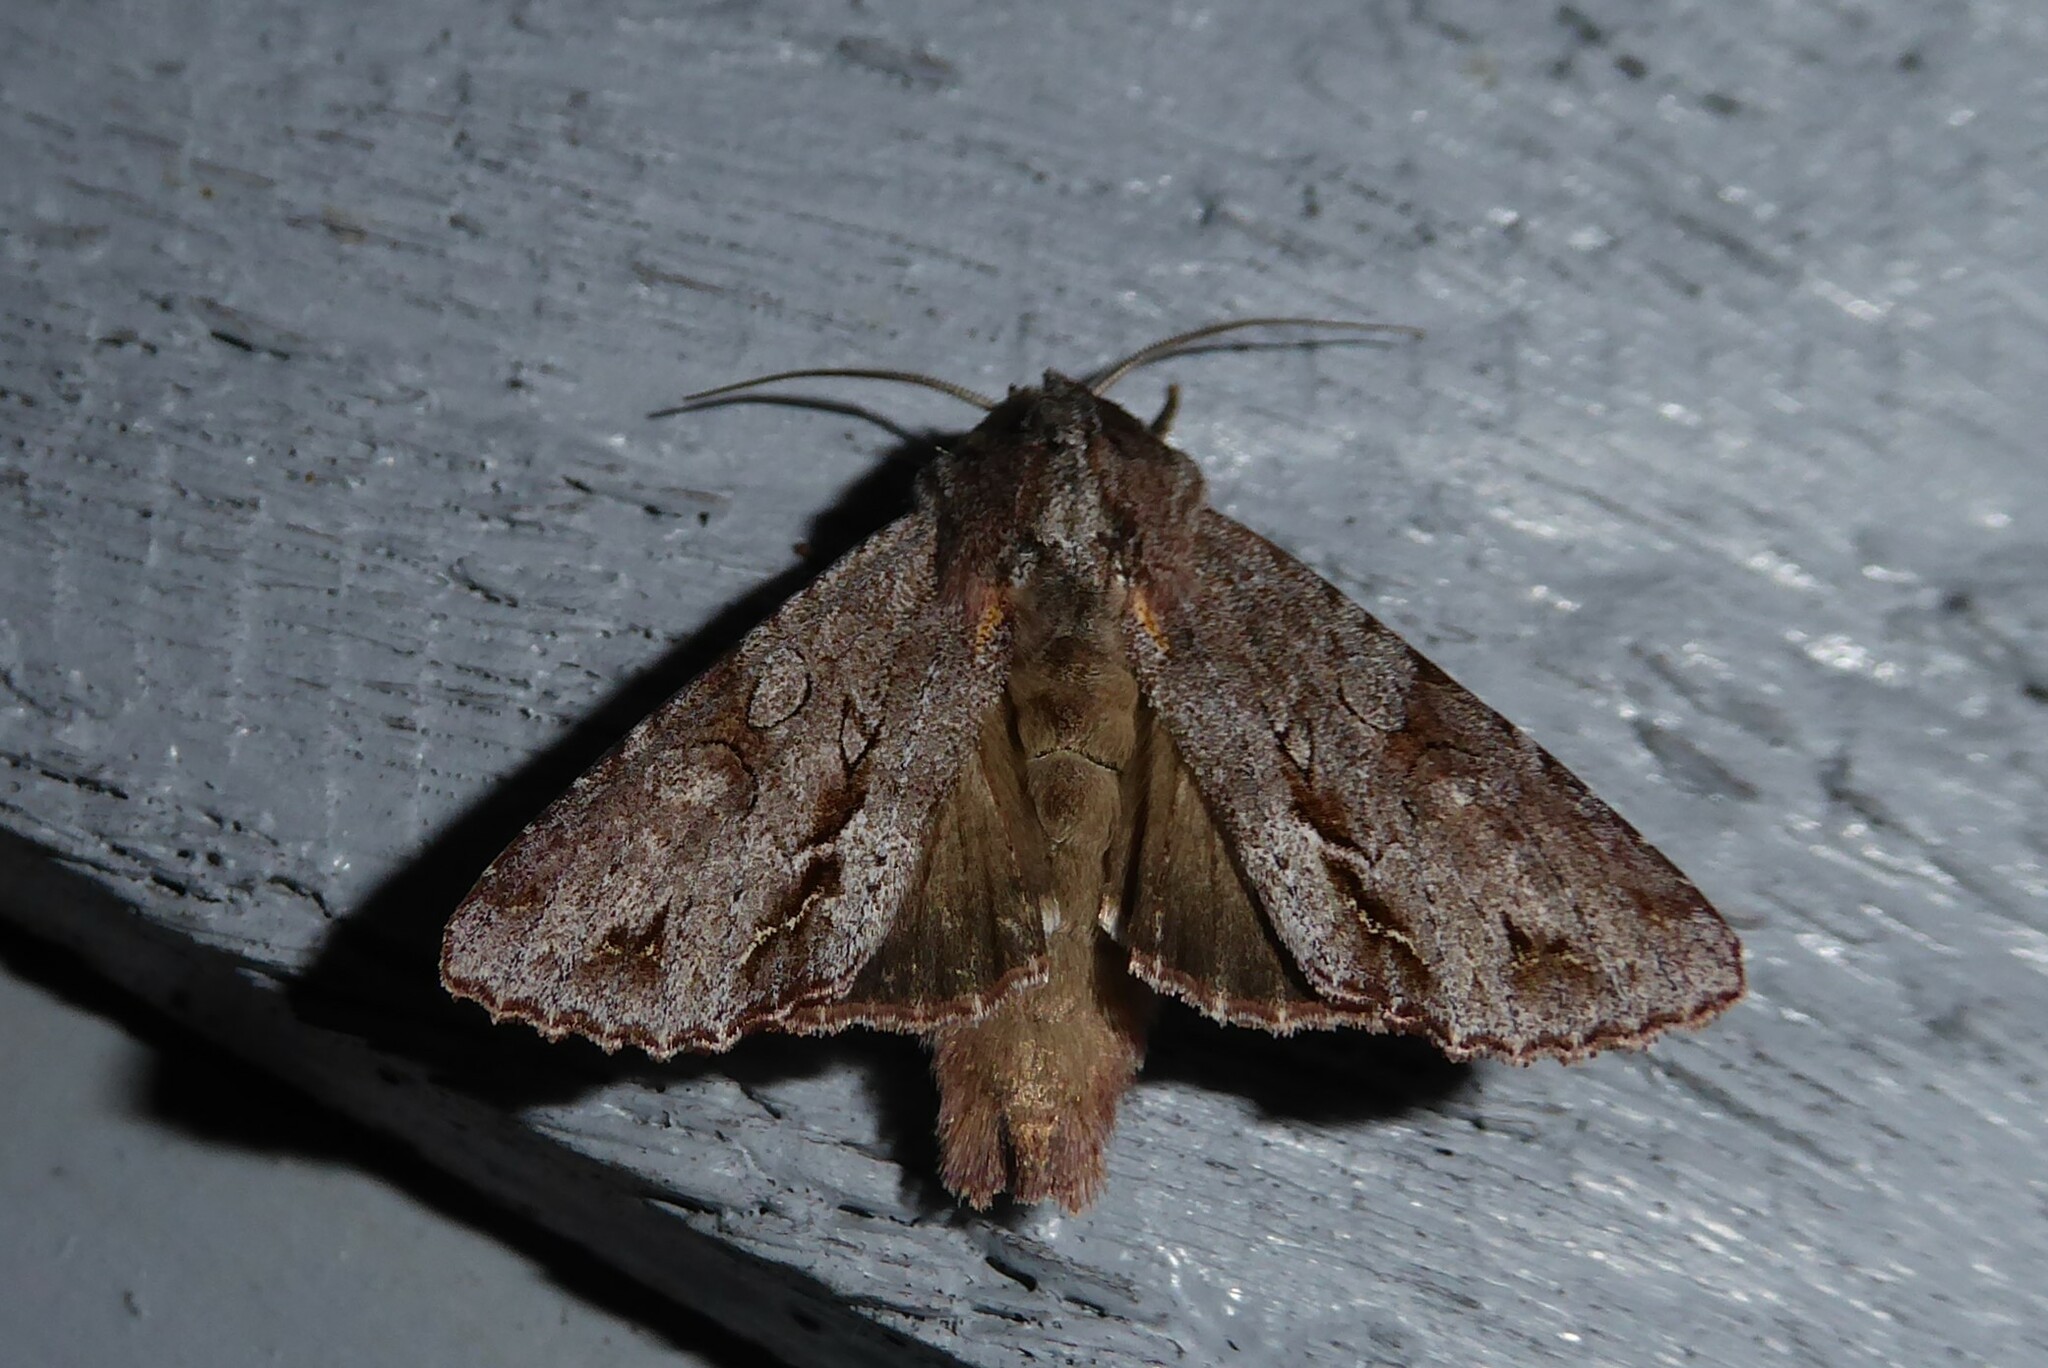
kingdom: Animalia
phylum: Arthropoda
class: Insecta
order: Lepidoptera
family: Noctuidae
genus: Ichneutica
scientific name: Ichneutica
